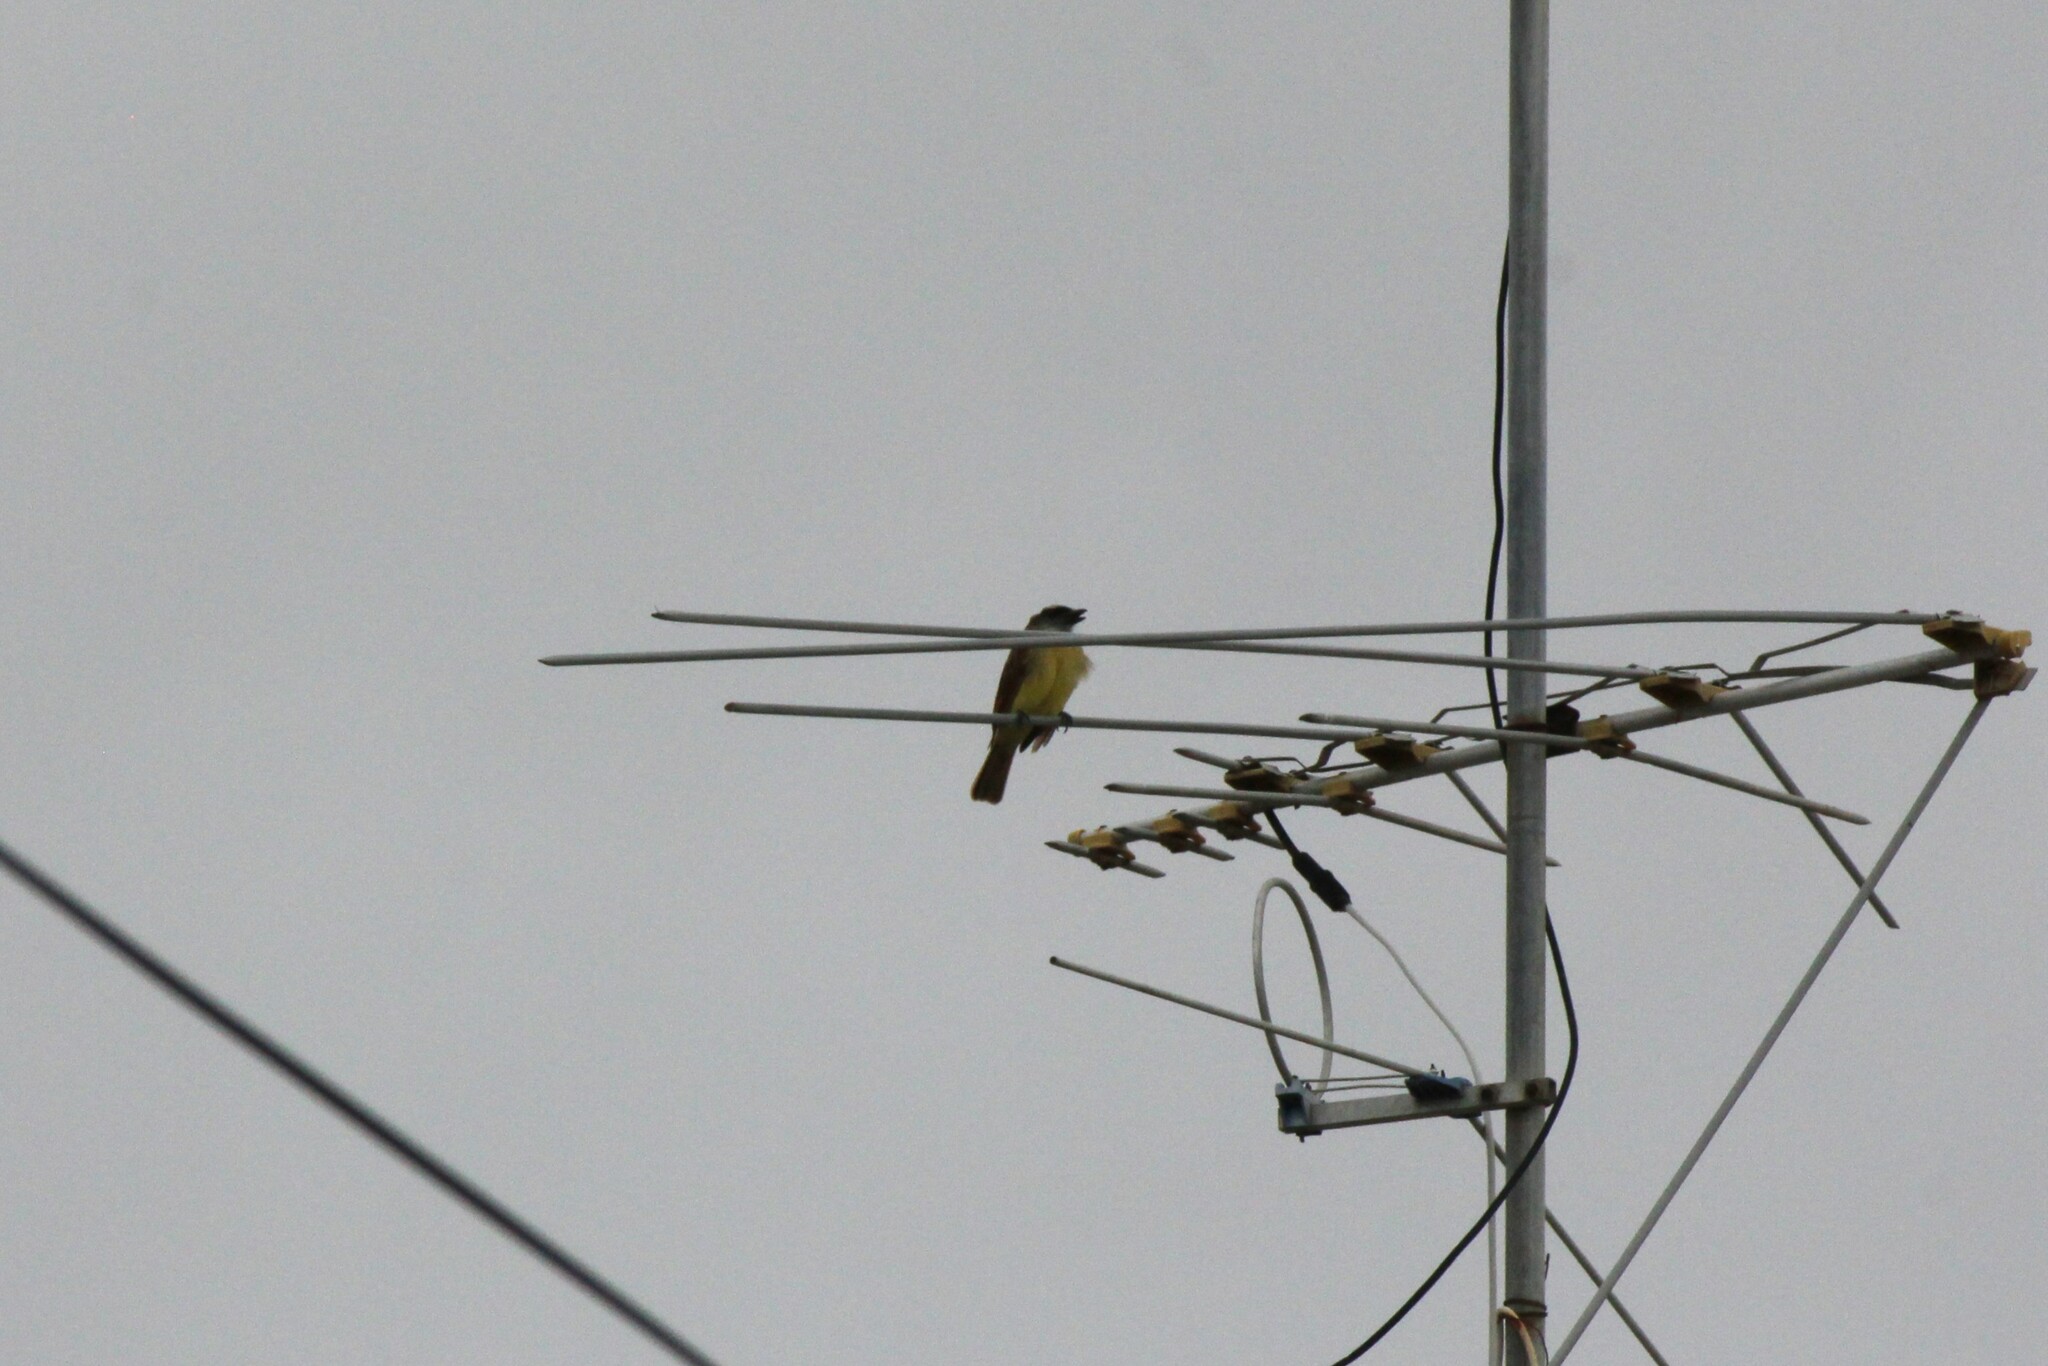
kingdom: Animalia
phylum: Chordata
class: Aves
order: Passeriformes
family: Tyrannidae
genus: Myiodynastes
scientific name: Myiodynastes bairdii
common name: Baird's flycatcher
